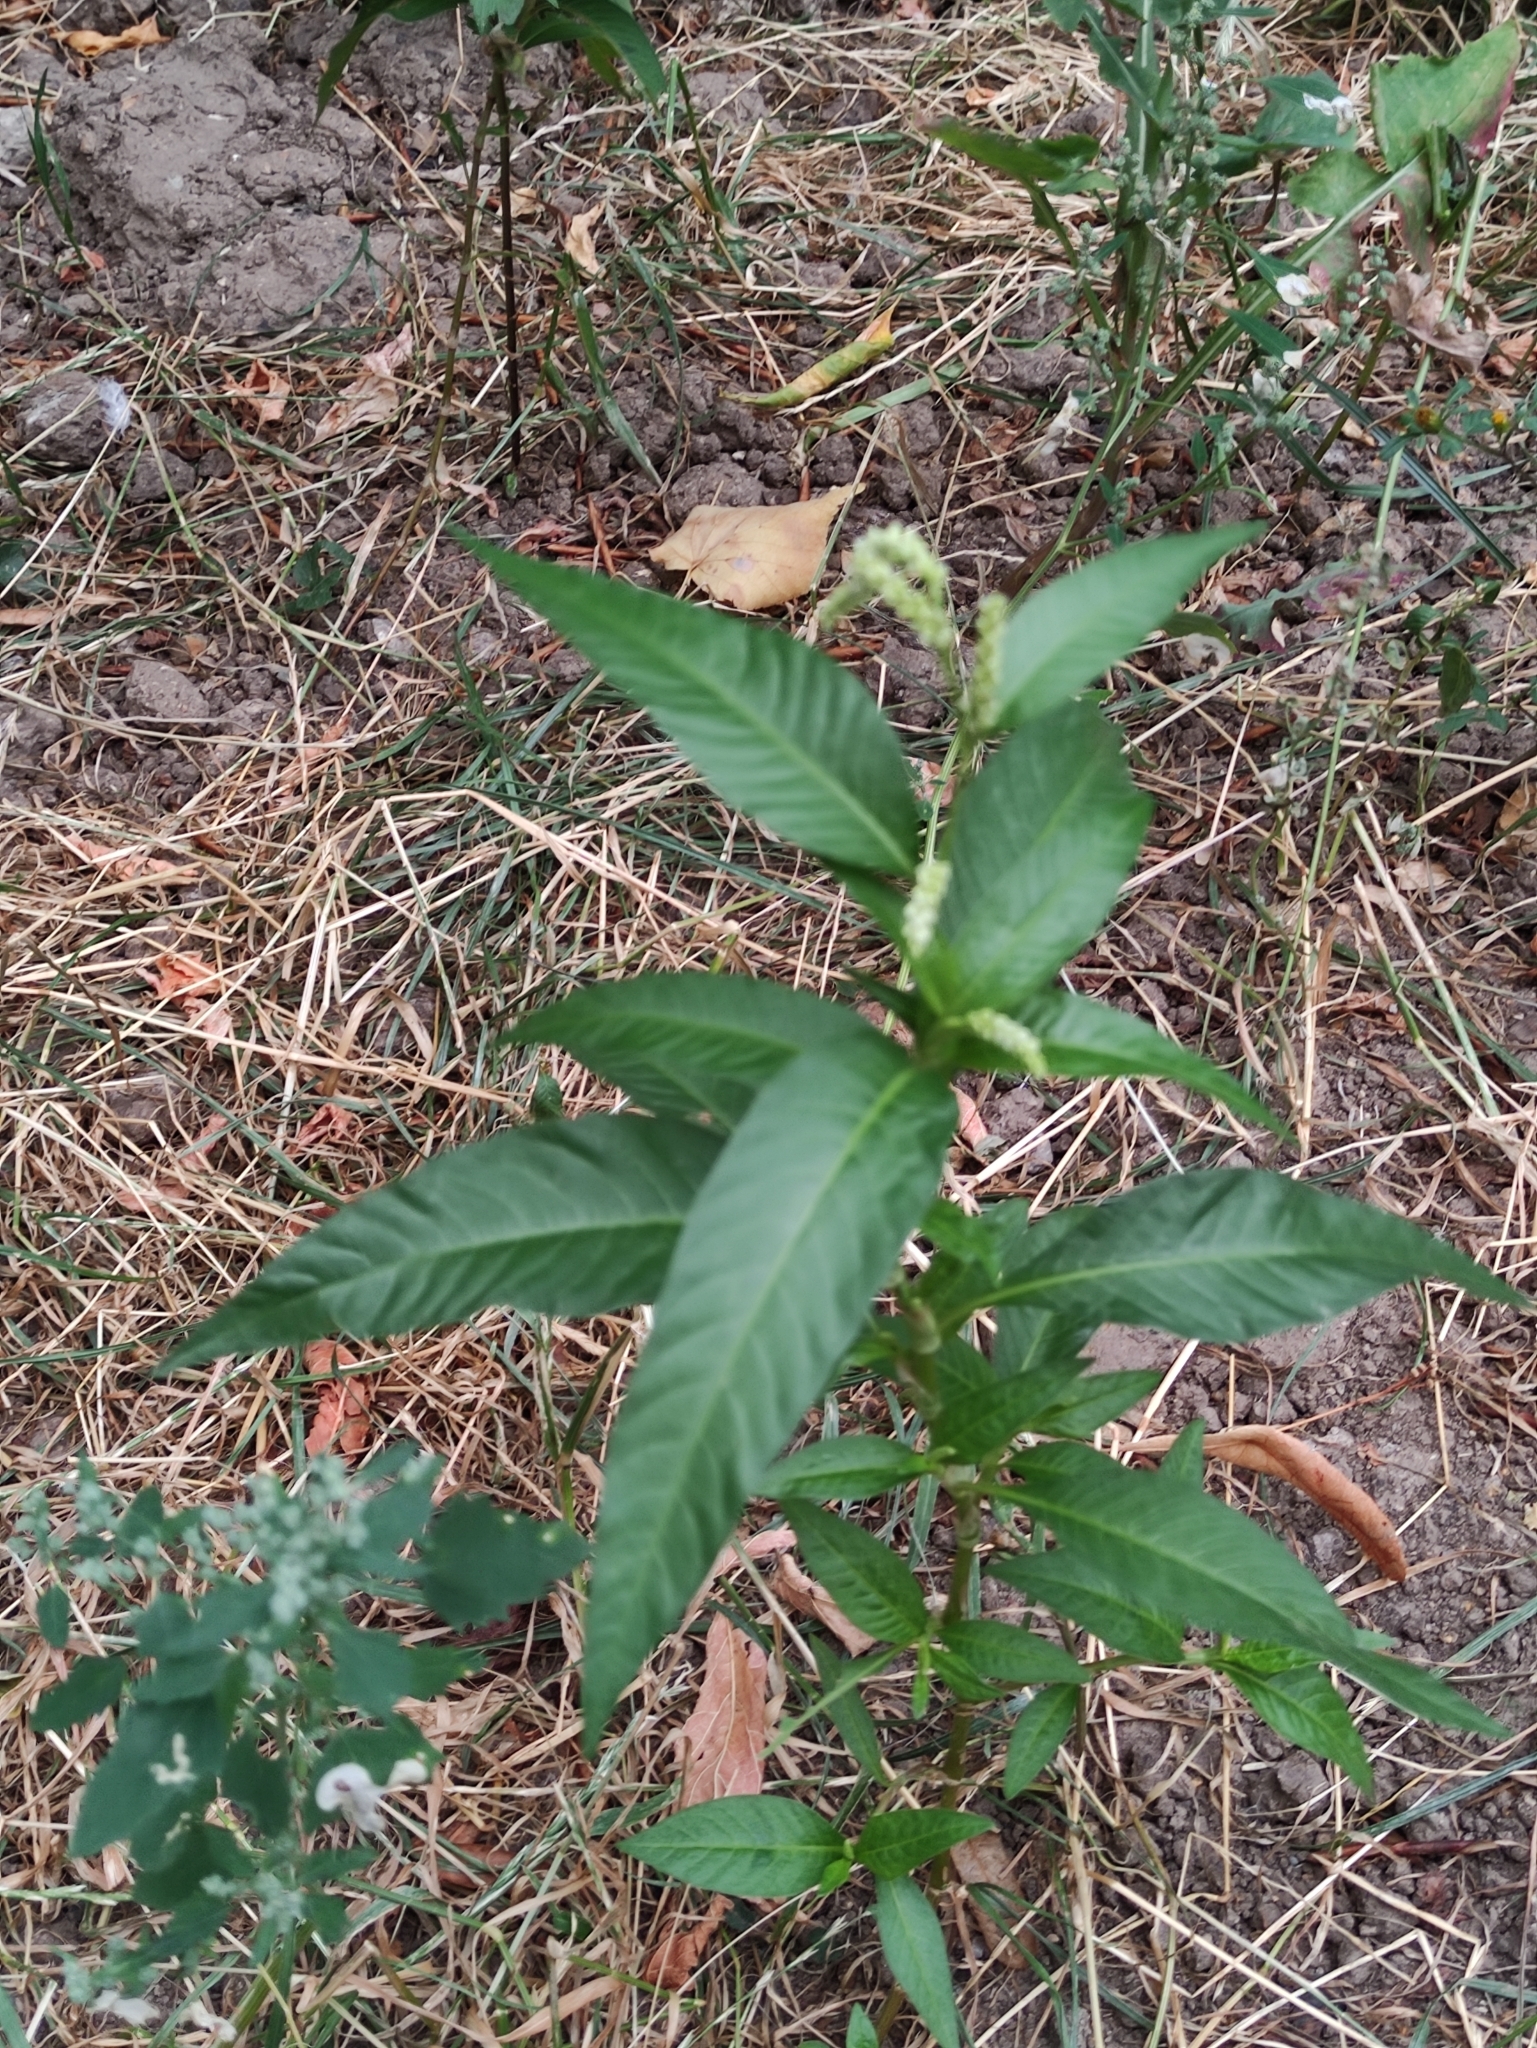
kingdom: Plantae
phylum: Tracheophyta
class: Magnoliopsida
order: Caryophyllales
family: Polygonaceae
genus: Persicaria
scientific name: Persicaria lapathifolia
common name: Curlytop knotweed
